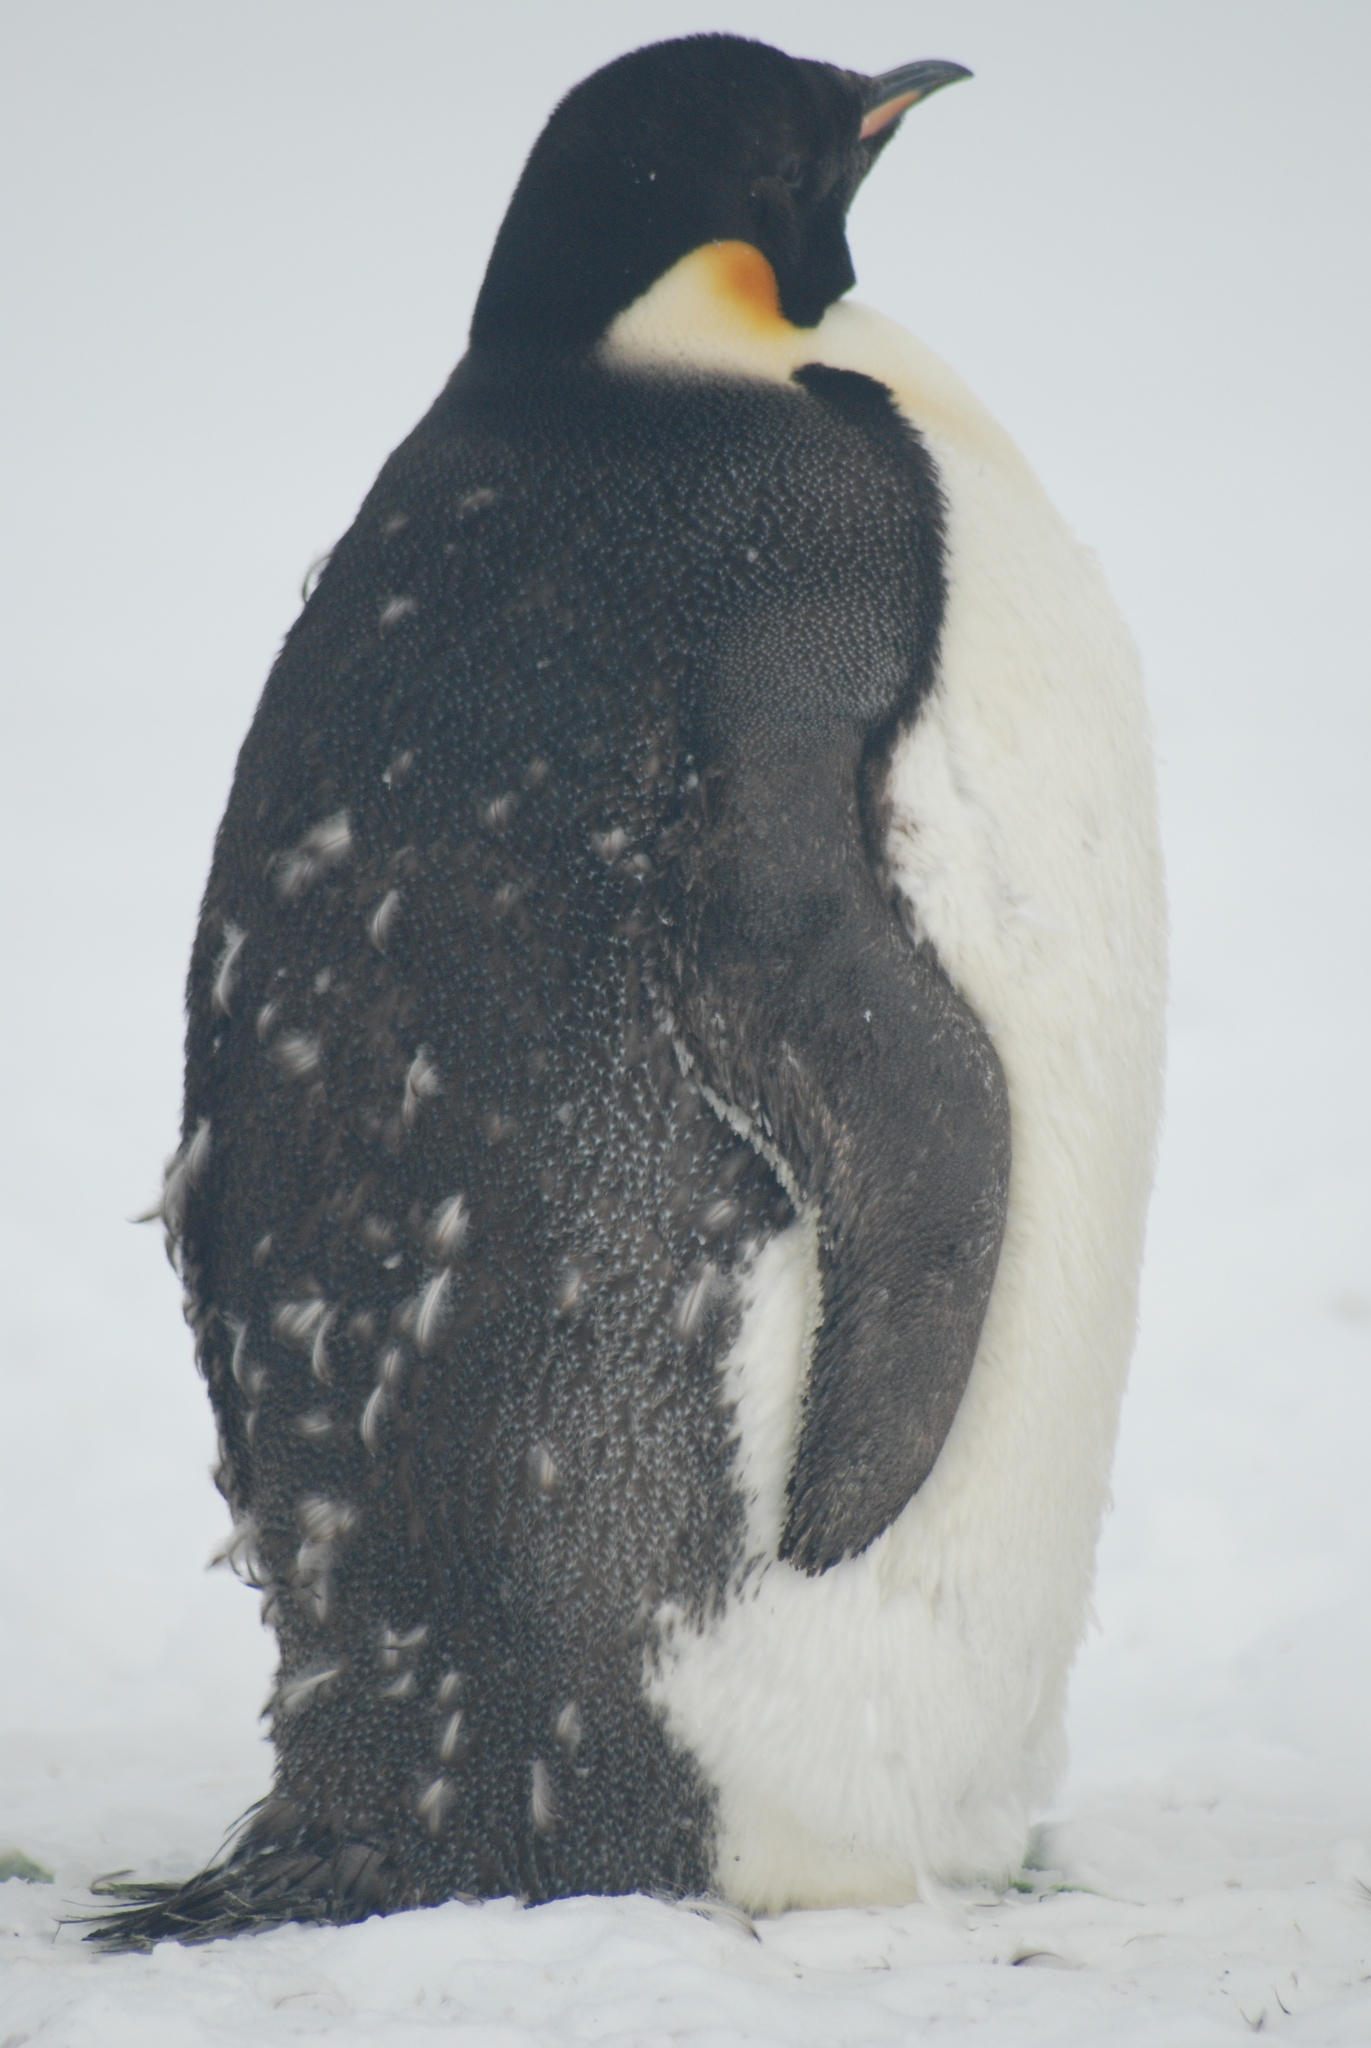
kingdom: Animalia
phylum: Chordata
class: Aves
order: Sphenisciformes
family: Spheniscidae
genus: Aptenodytes
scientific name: Aptenodytes forsteri
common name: Emperor penguin
